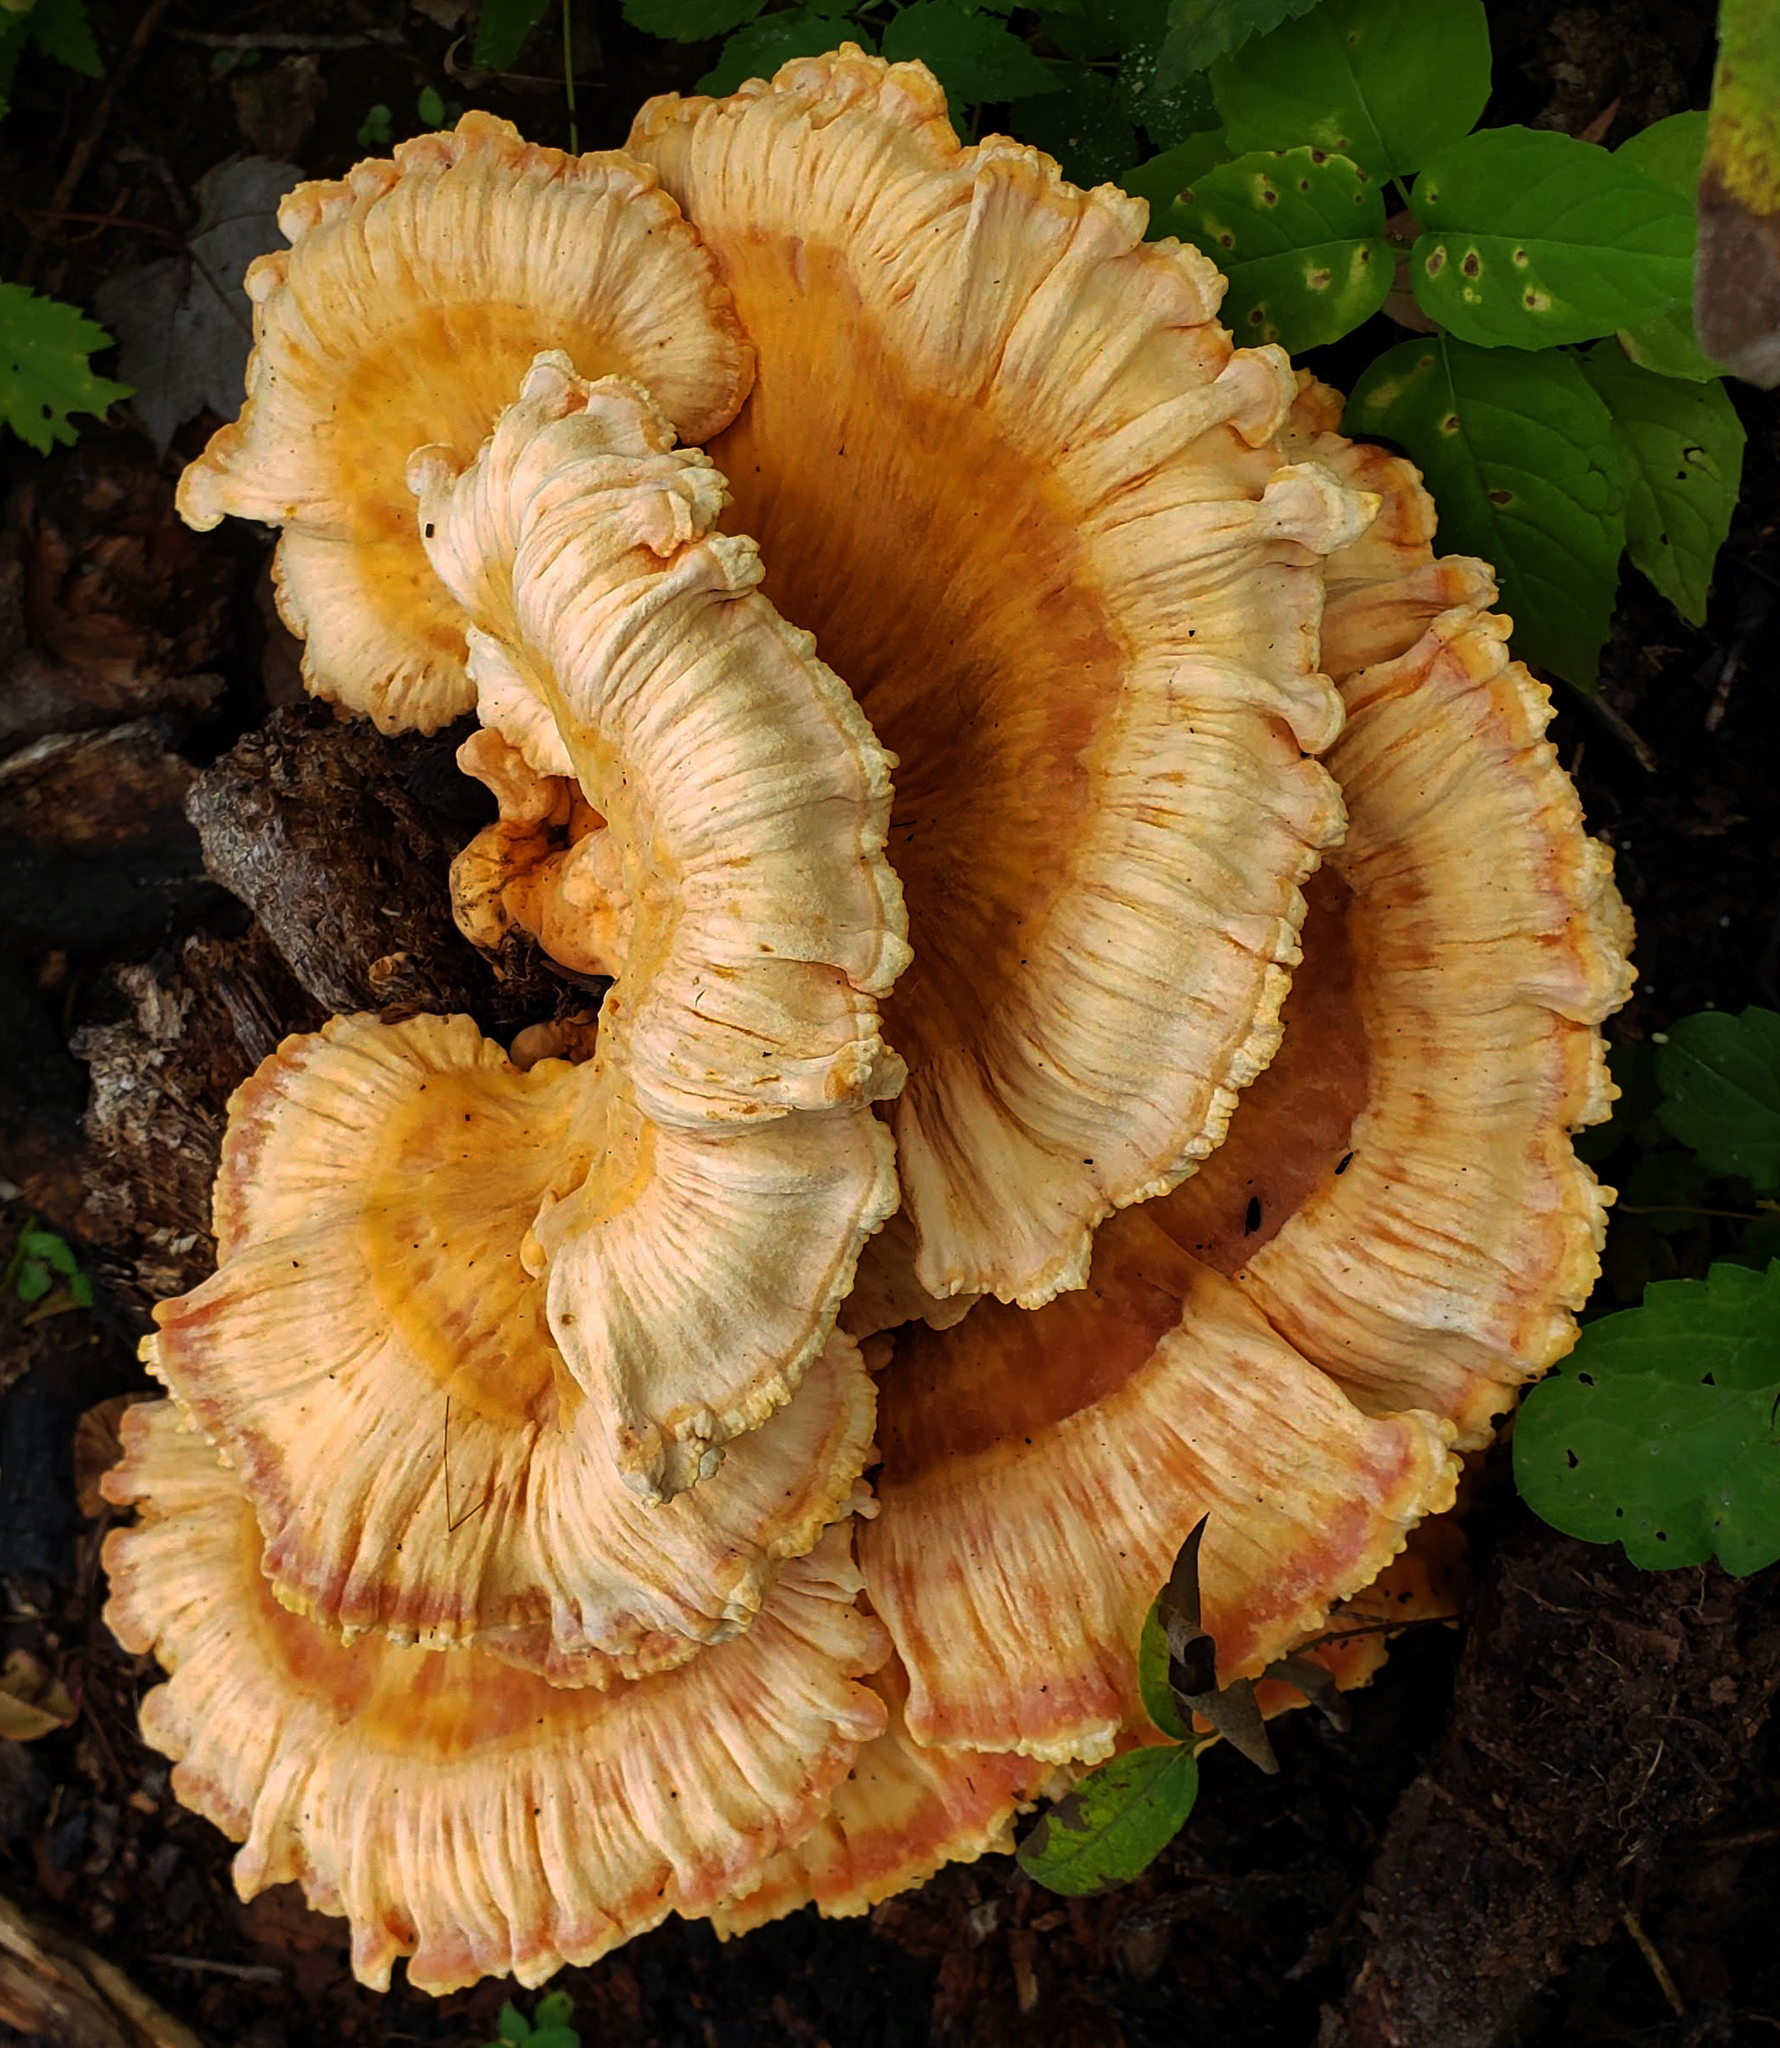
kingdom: Fungi
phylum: Basidiomycota
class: Agaricomycetes
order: Polyporales
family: Laetiporaceae
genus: Laetiporus
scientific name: Laetiporus sulphureus
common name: Chicken of the woods
